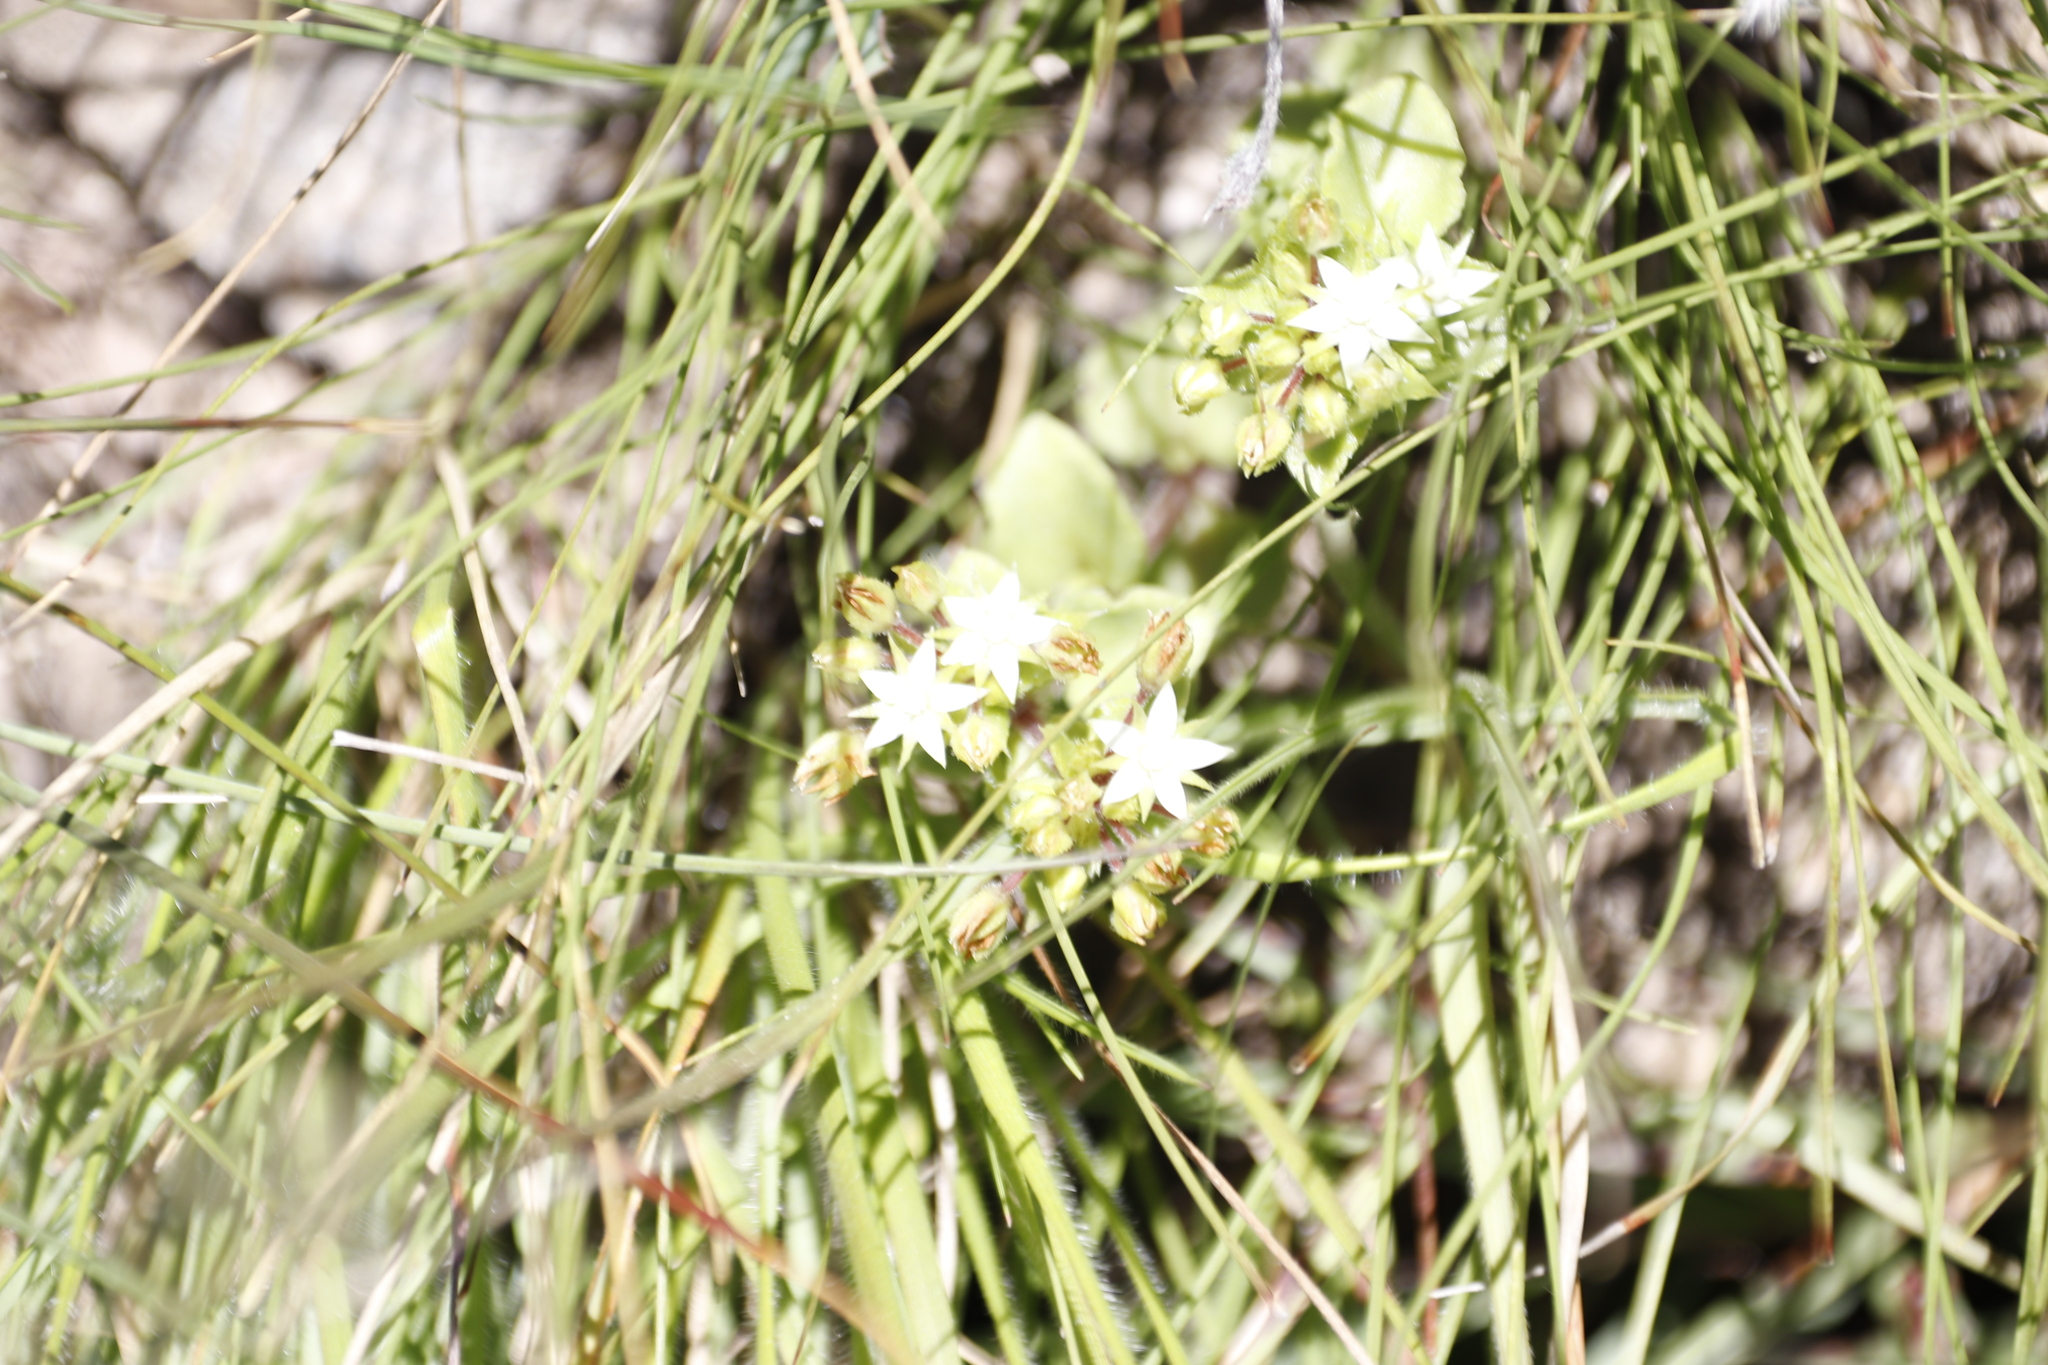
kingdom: Plantae
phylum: Tracheophyta
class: Magnoliopsida
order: Saxifragales
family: Crassulaceae
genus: Crassula
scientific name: Crassula pellucida
